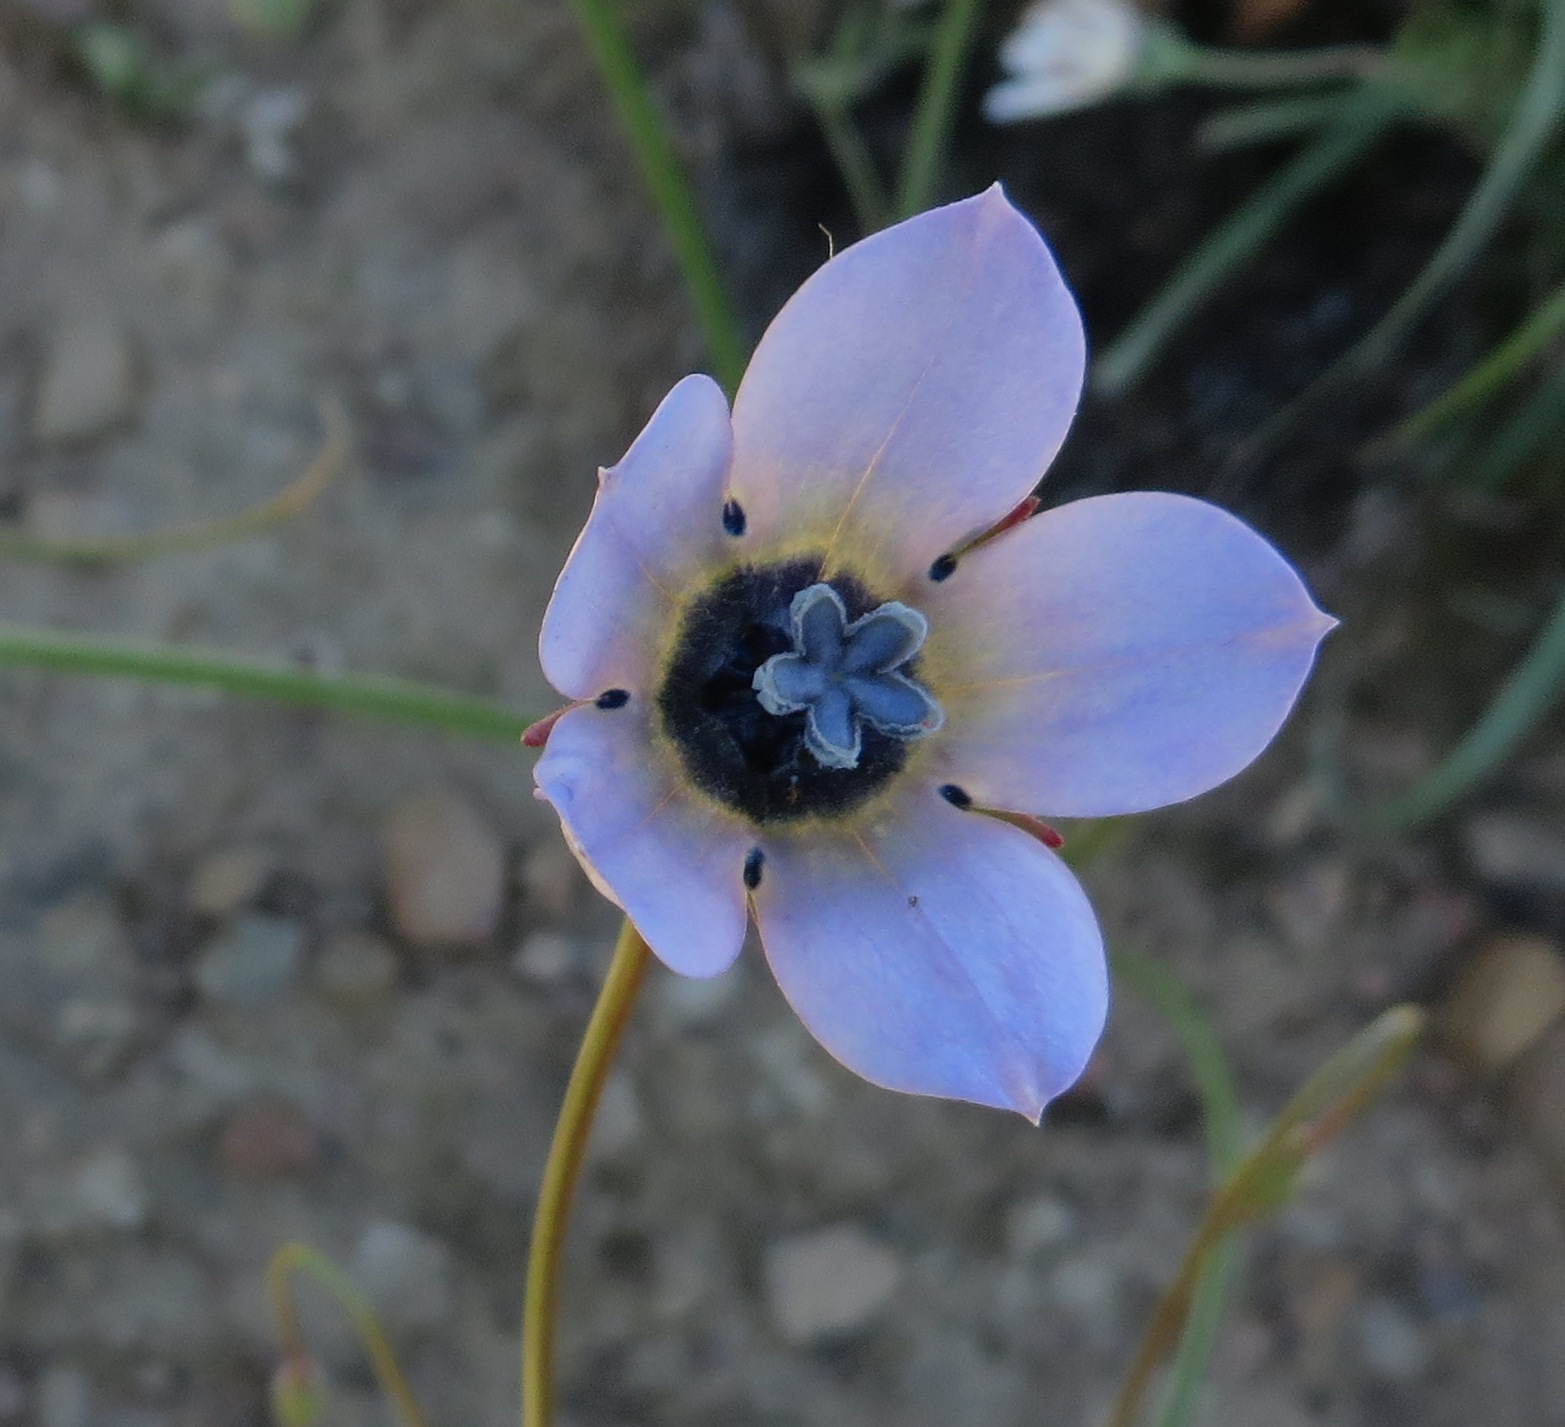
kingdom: Plantae
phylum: Tracheophyta
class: Magnoliopsida
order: Asterales
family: Campanulaceae
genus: Wahlenbergia
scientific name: Wahlenbergia capensis
